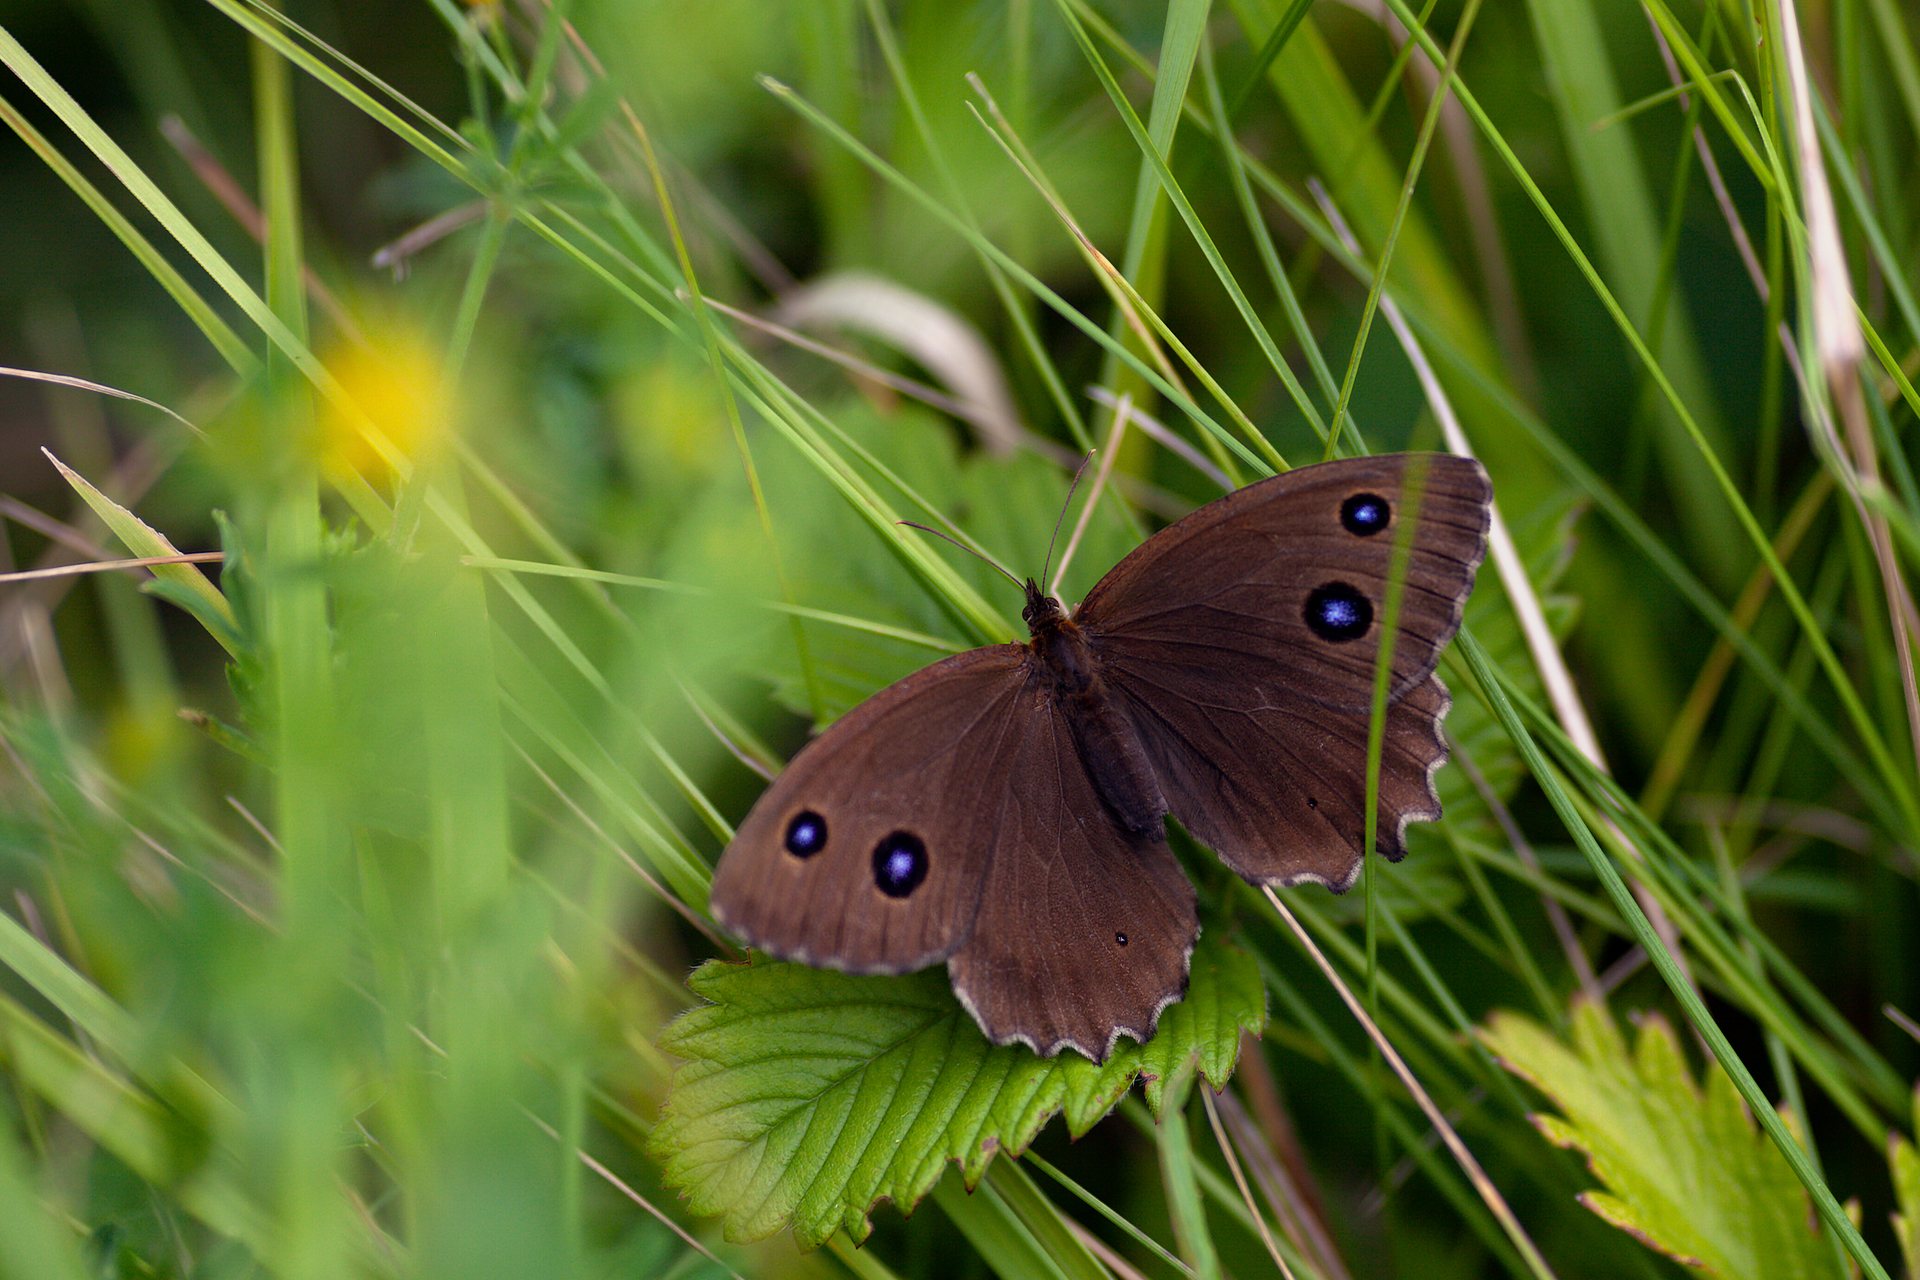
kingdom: Animalia
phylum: Arthropoda
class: Insecta
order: Lepidoptera
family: Nymphalidae
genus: Minois
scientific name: Minois dryas
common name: Dryad
